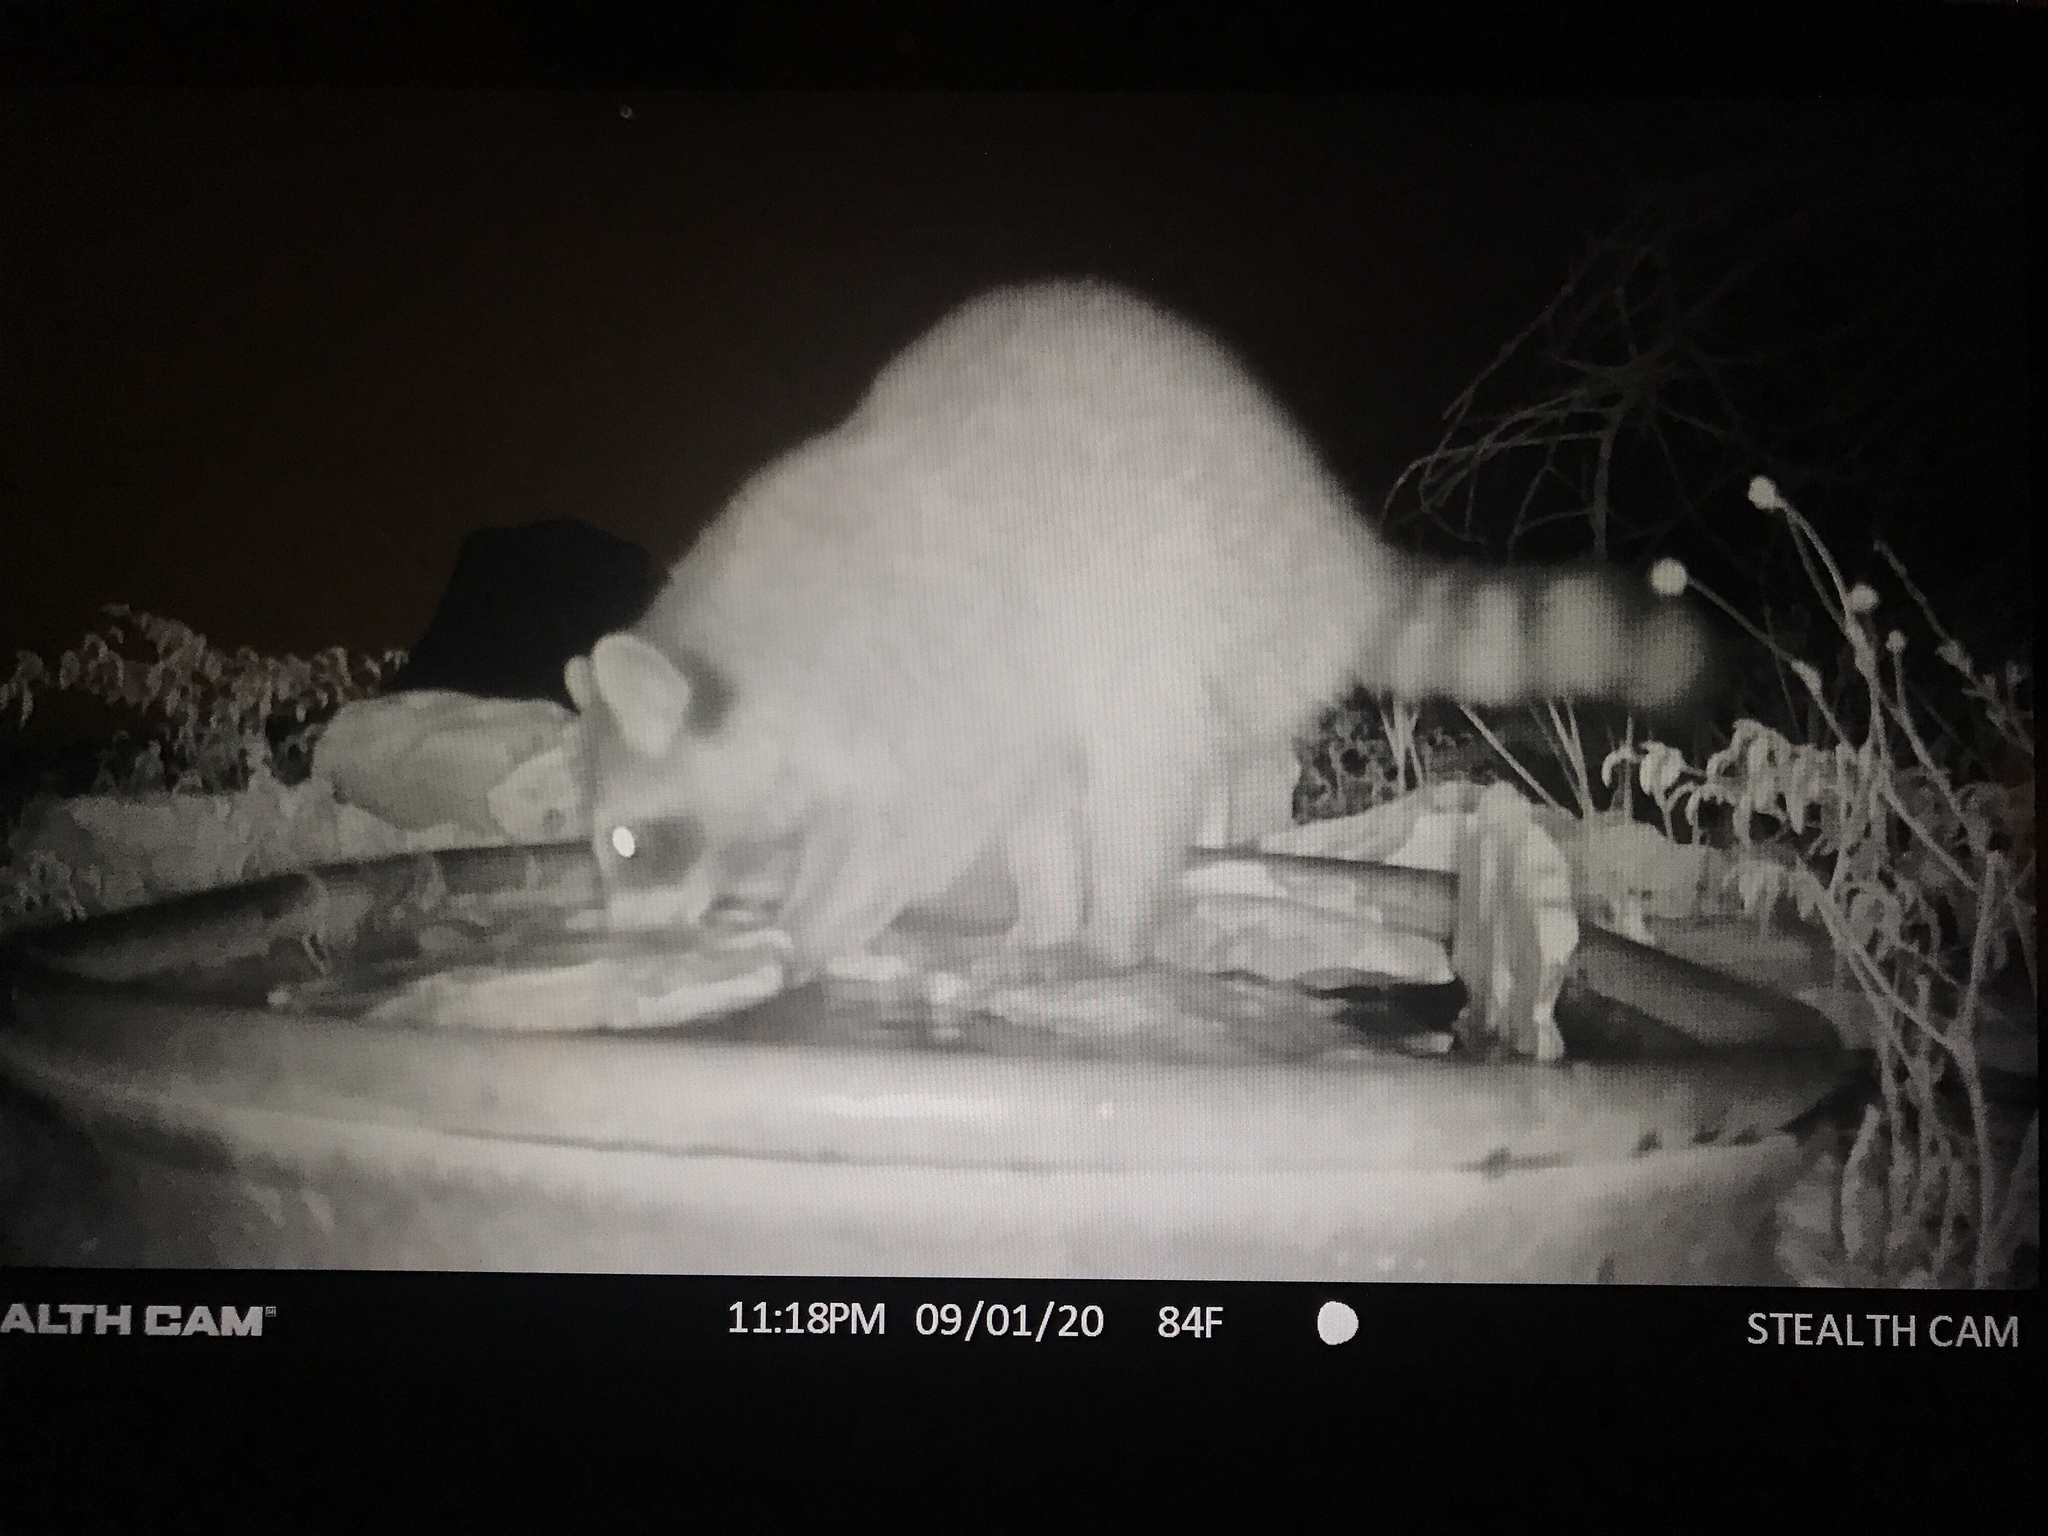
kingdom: Animalia
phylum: Chordata
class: Mammalia
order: Carnivora
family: Procyonidae
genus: Procyon
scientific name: Procyon lotor
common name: Raccoon
